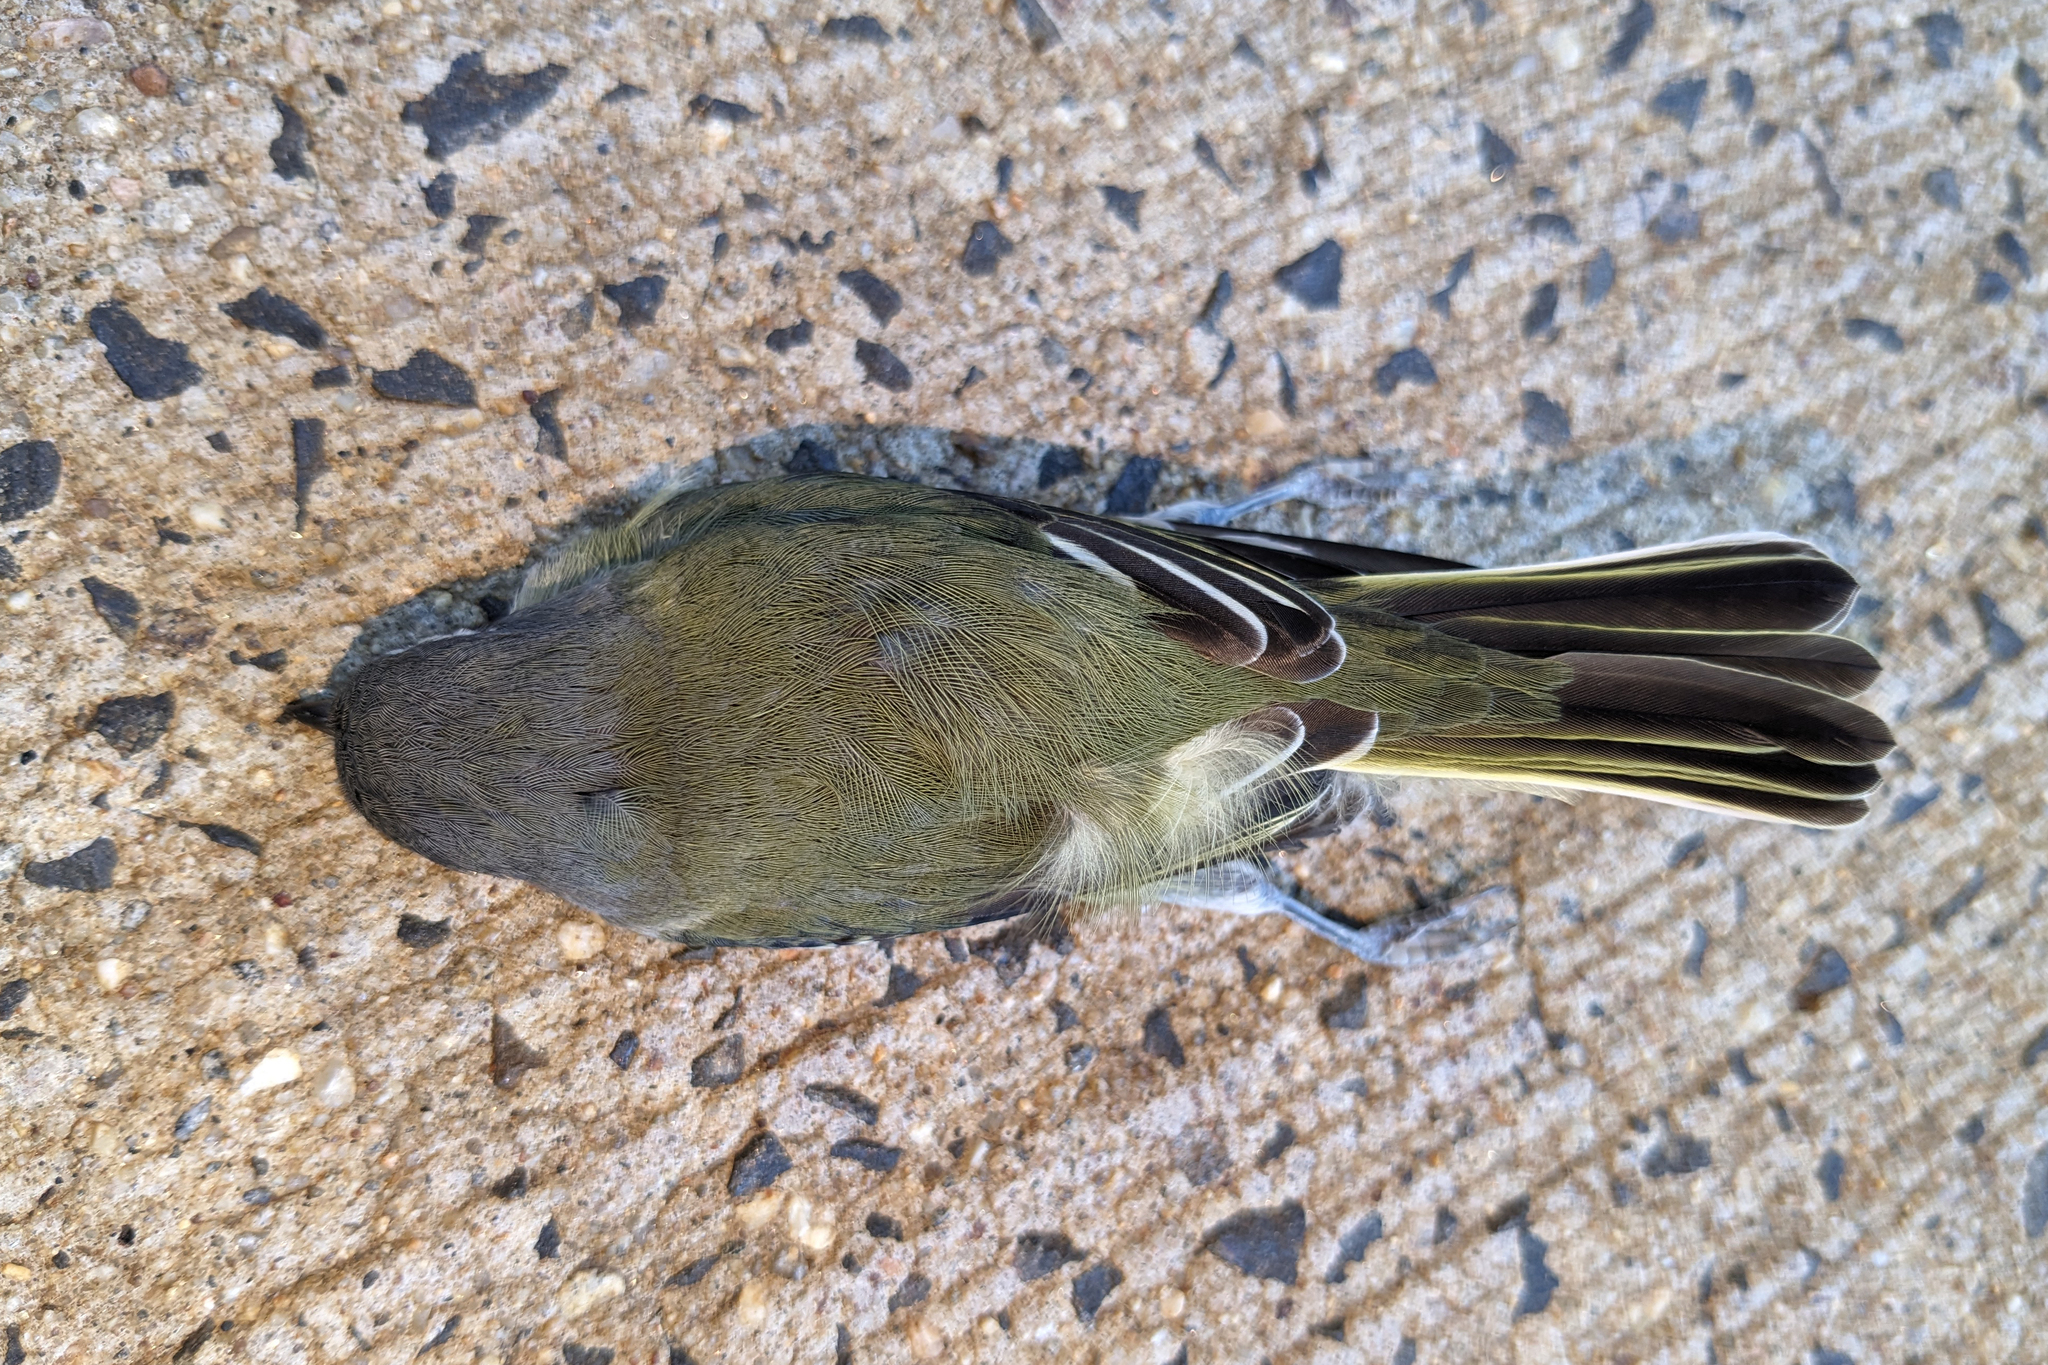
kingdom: Animalia
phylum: Chordata
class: Aves
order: Passeriformes
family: Vireonidae
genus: Vireo
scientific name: Vireo solitarius
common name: Blue-headed vireo
